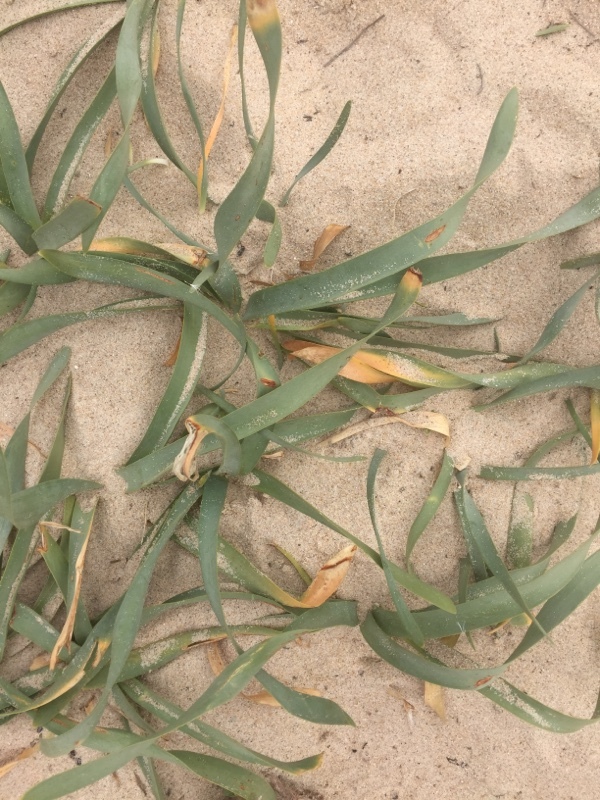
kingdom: Plantae
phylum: Tracheophyta
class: Liliopsida
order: Asparagales
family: Amaryllidaceae
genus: Pancratium
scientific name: Pancratium maritimum
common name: Sea-daffodil
